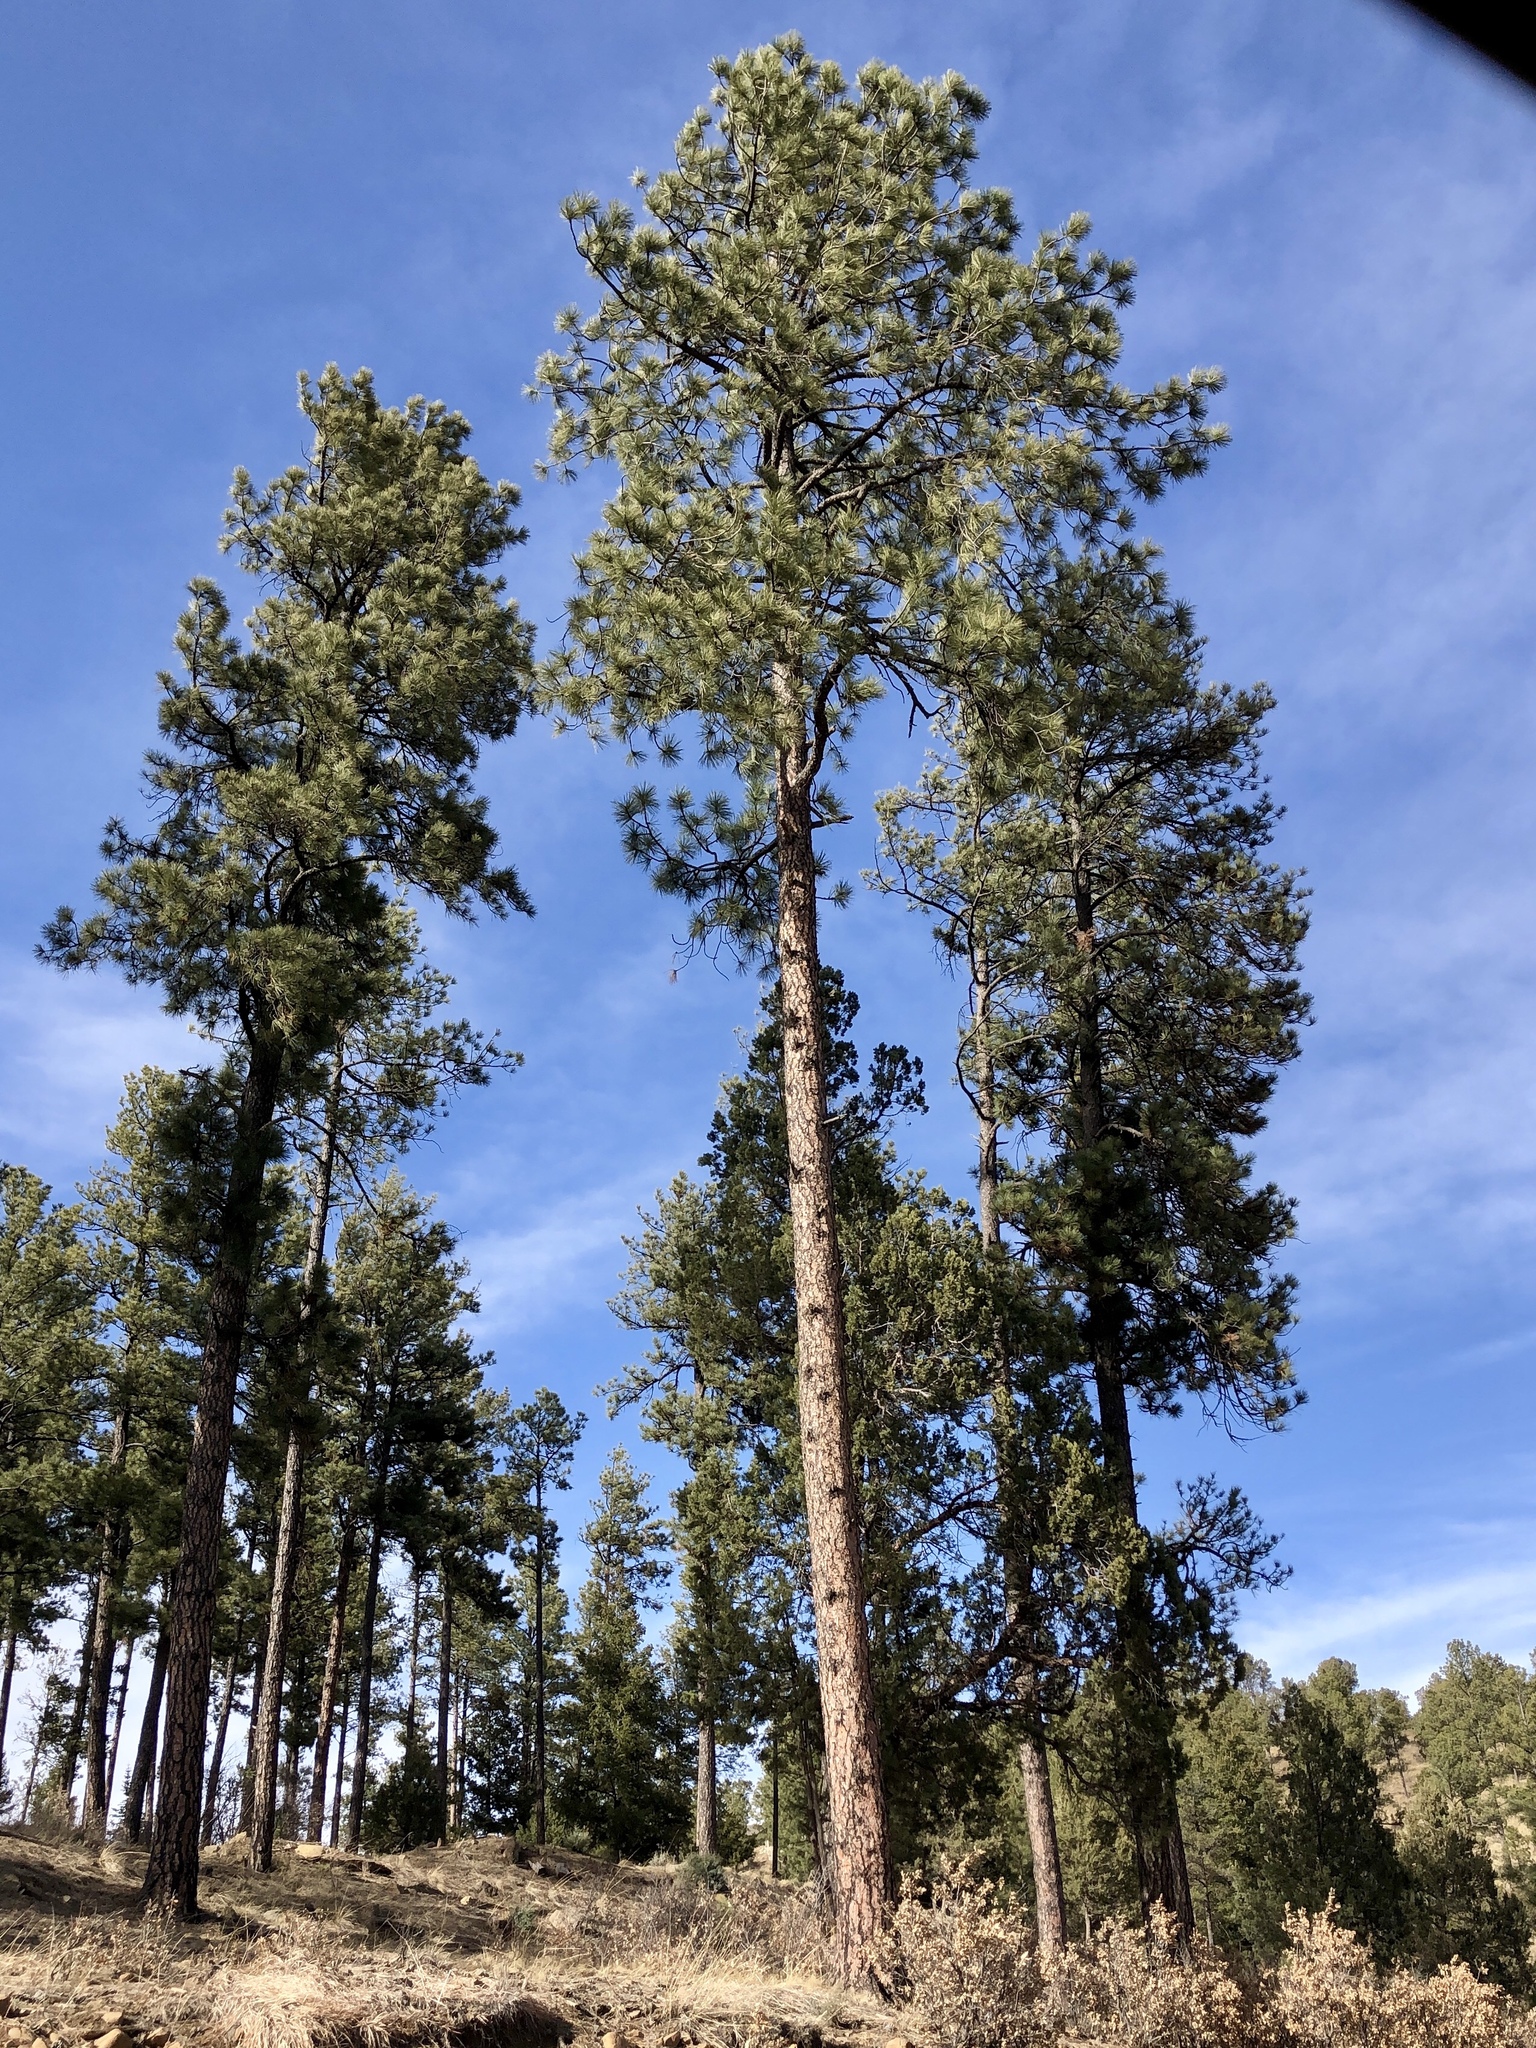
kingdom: Plantae
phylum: Tracheophyta
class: Pinopsida
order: Pinales
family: Pinaceae
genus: Pinus
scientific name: Pinus ponderosa
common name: Western yellow-pine
